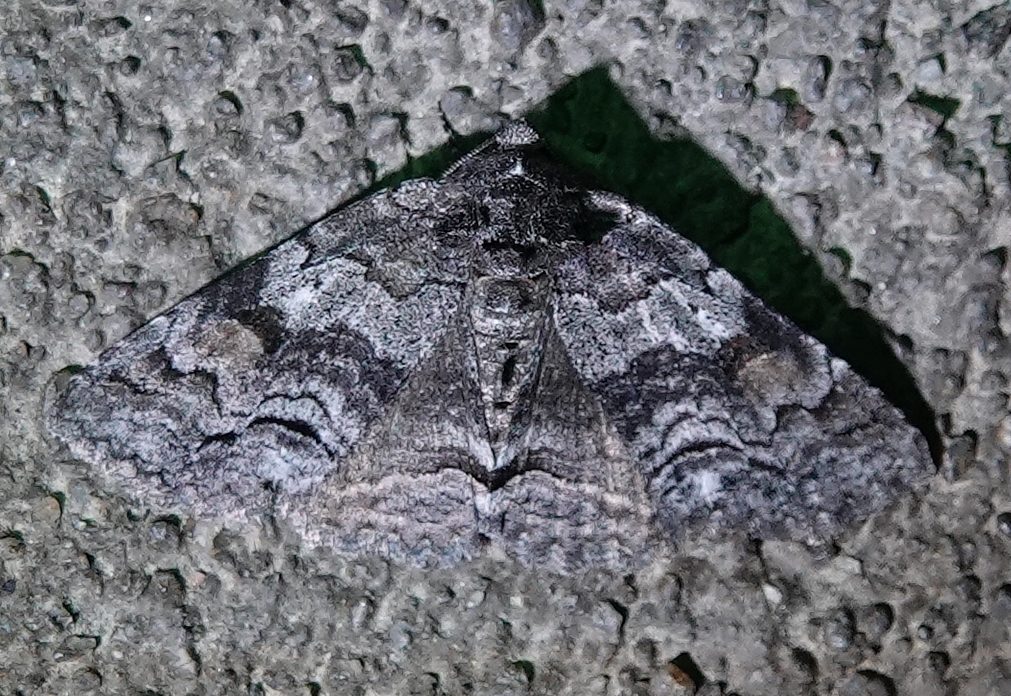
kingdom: Animalia
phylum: Arthropoda
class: Insecta
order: Lepidoptera
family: Erebidae
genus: Zale
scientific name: Zale duplicata
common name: Pine false looper moth
